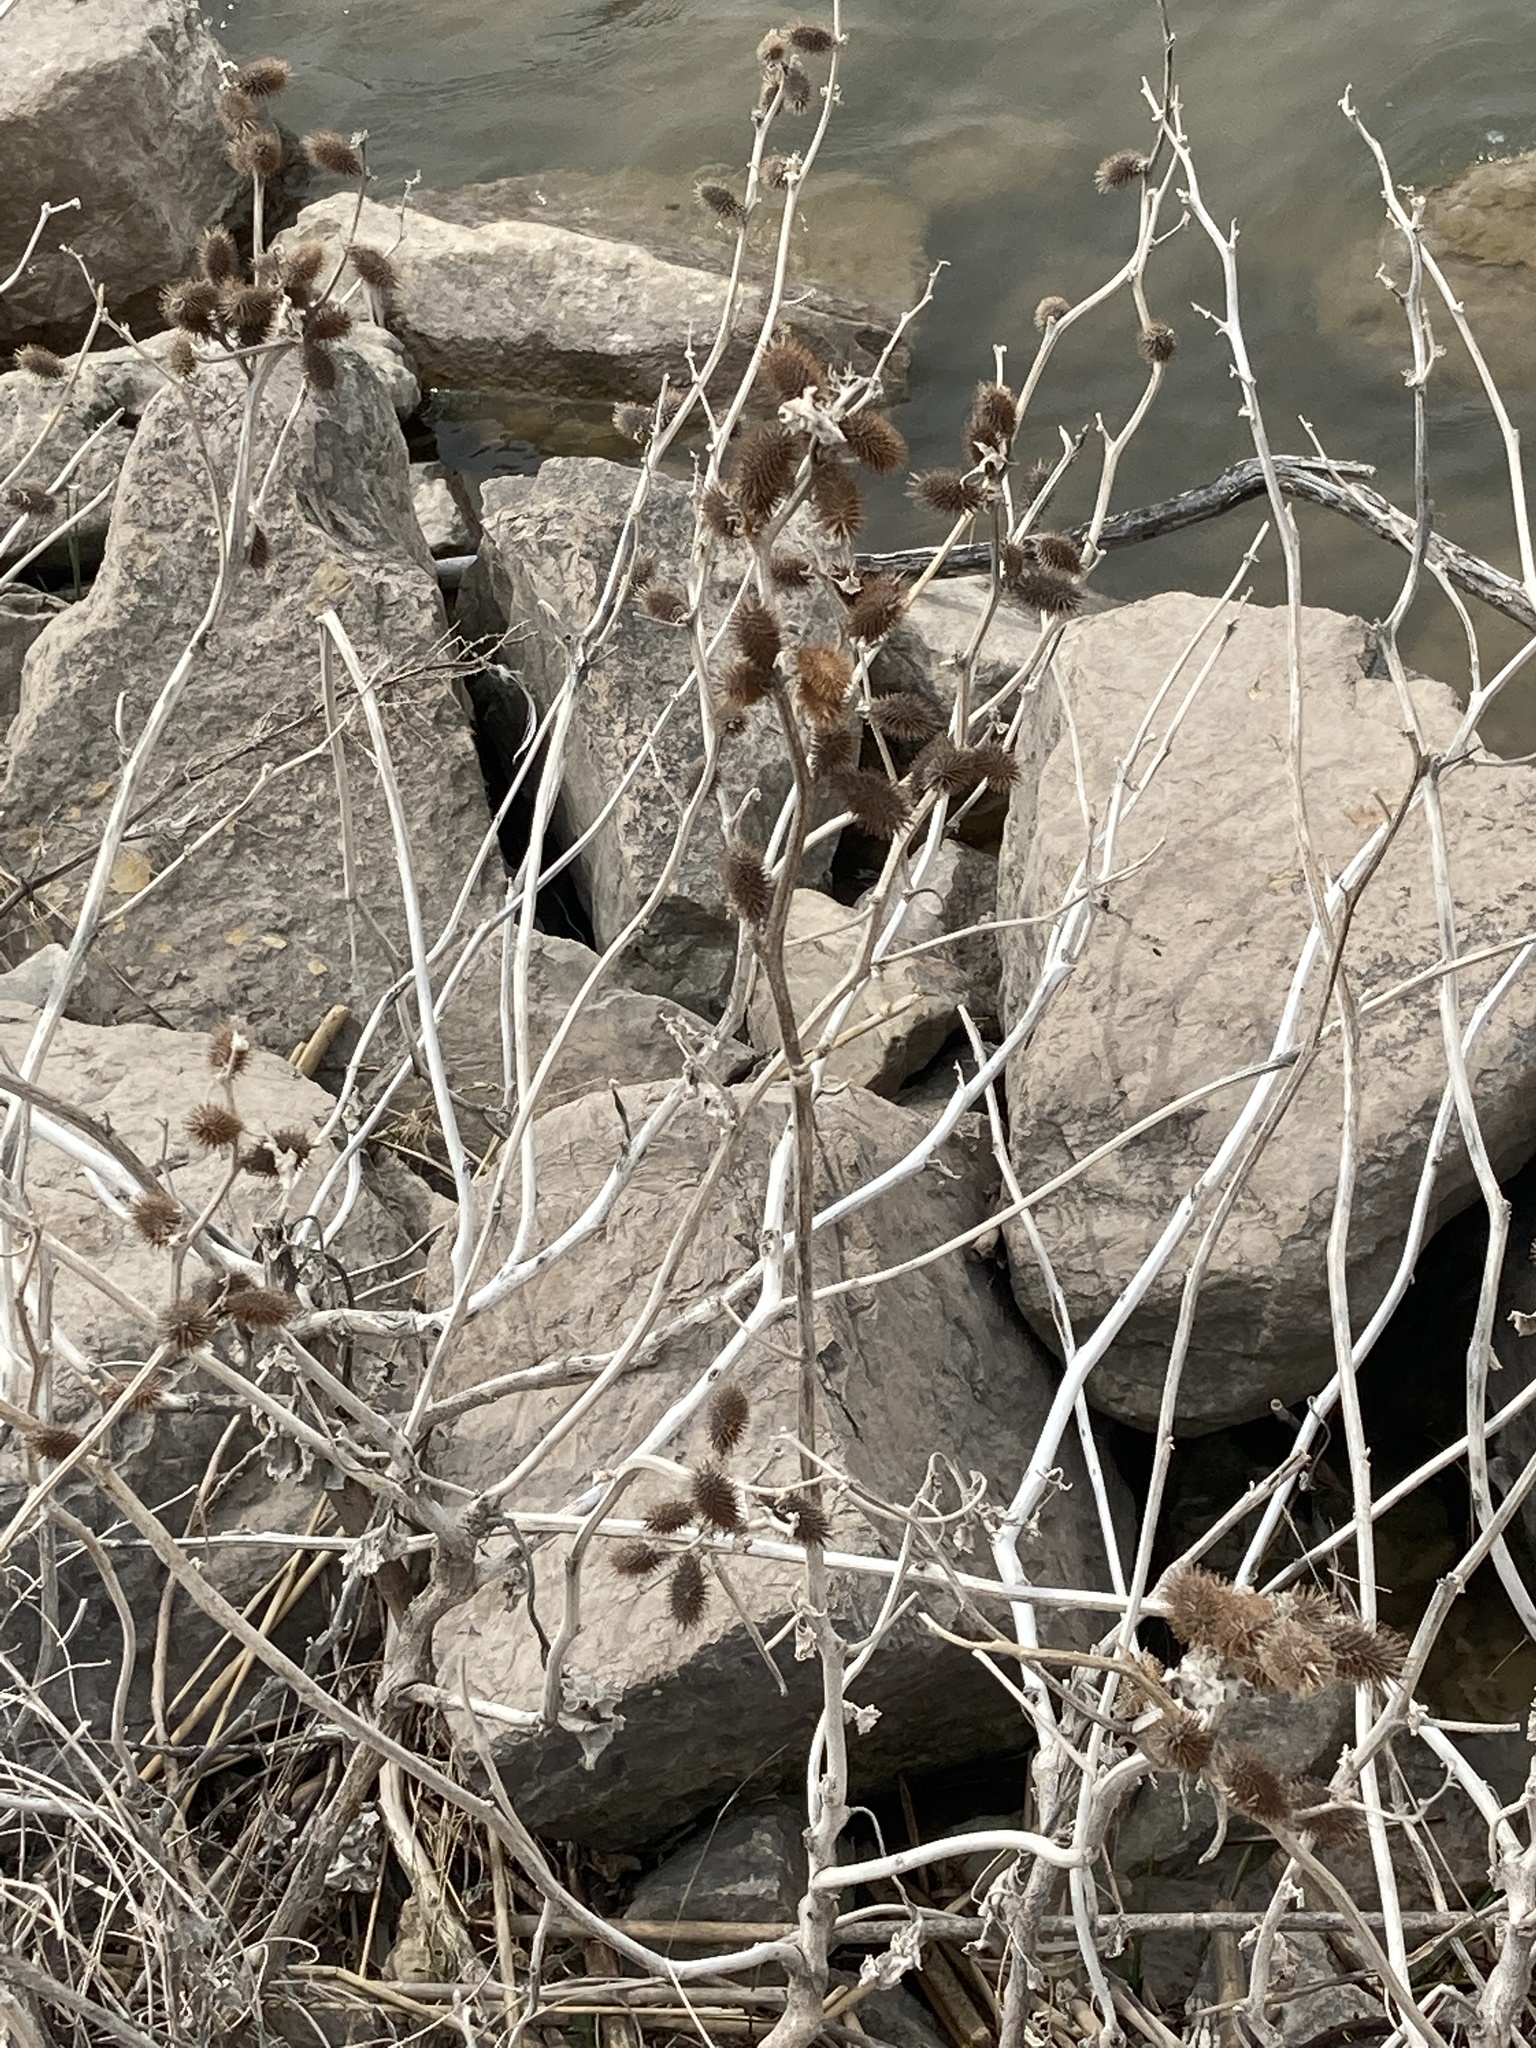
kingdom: Plantae
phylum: Tracheophyta
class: Magnoliopsida
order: Asterales
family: Asteraceae
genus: Xanthium
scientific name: Xanthium strumarium
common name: Rough cocklebur
